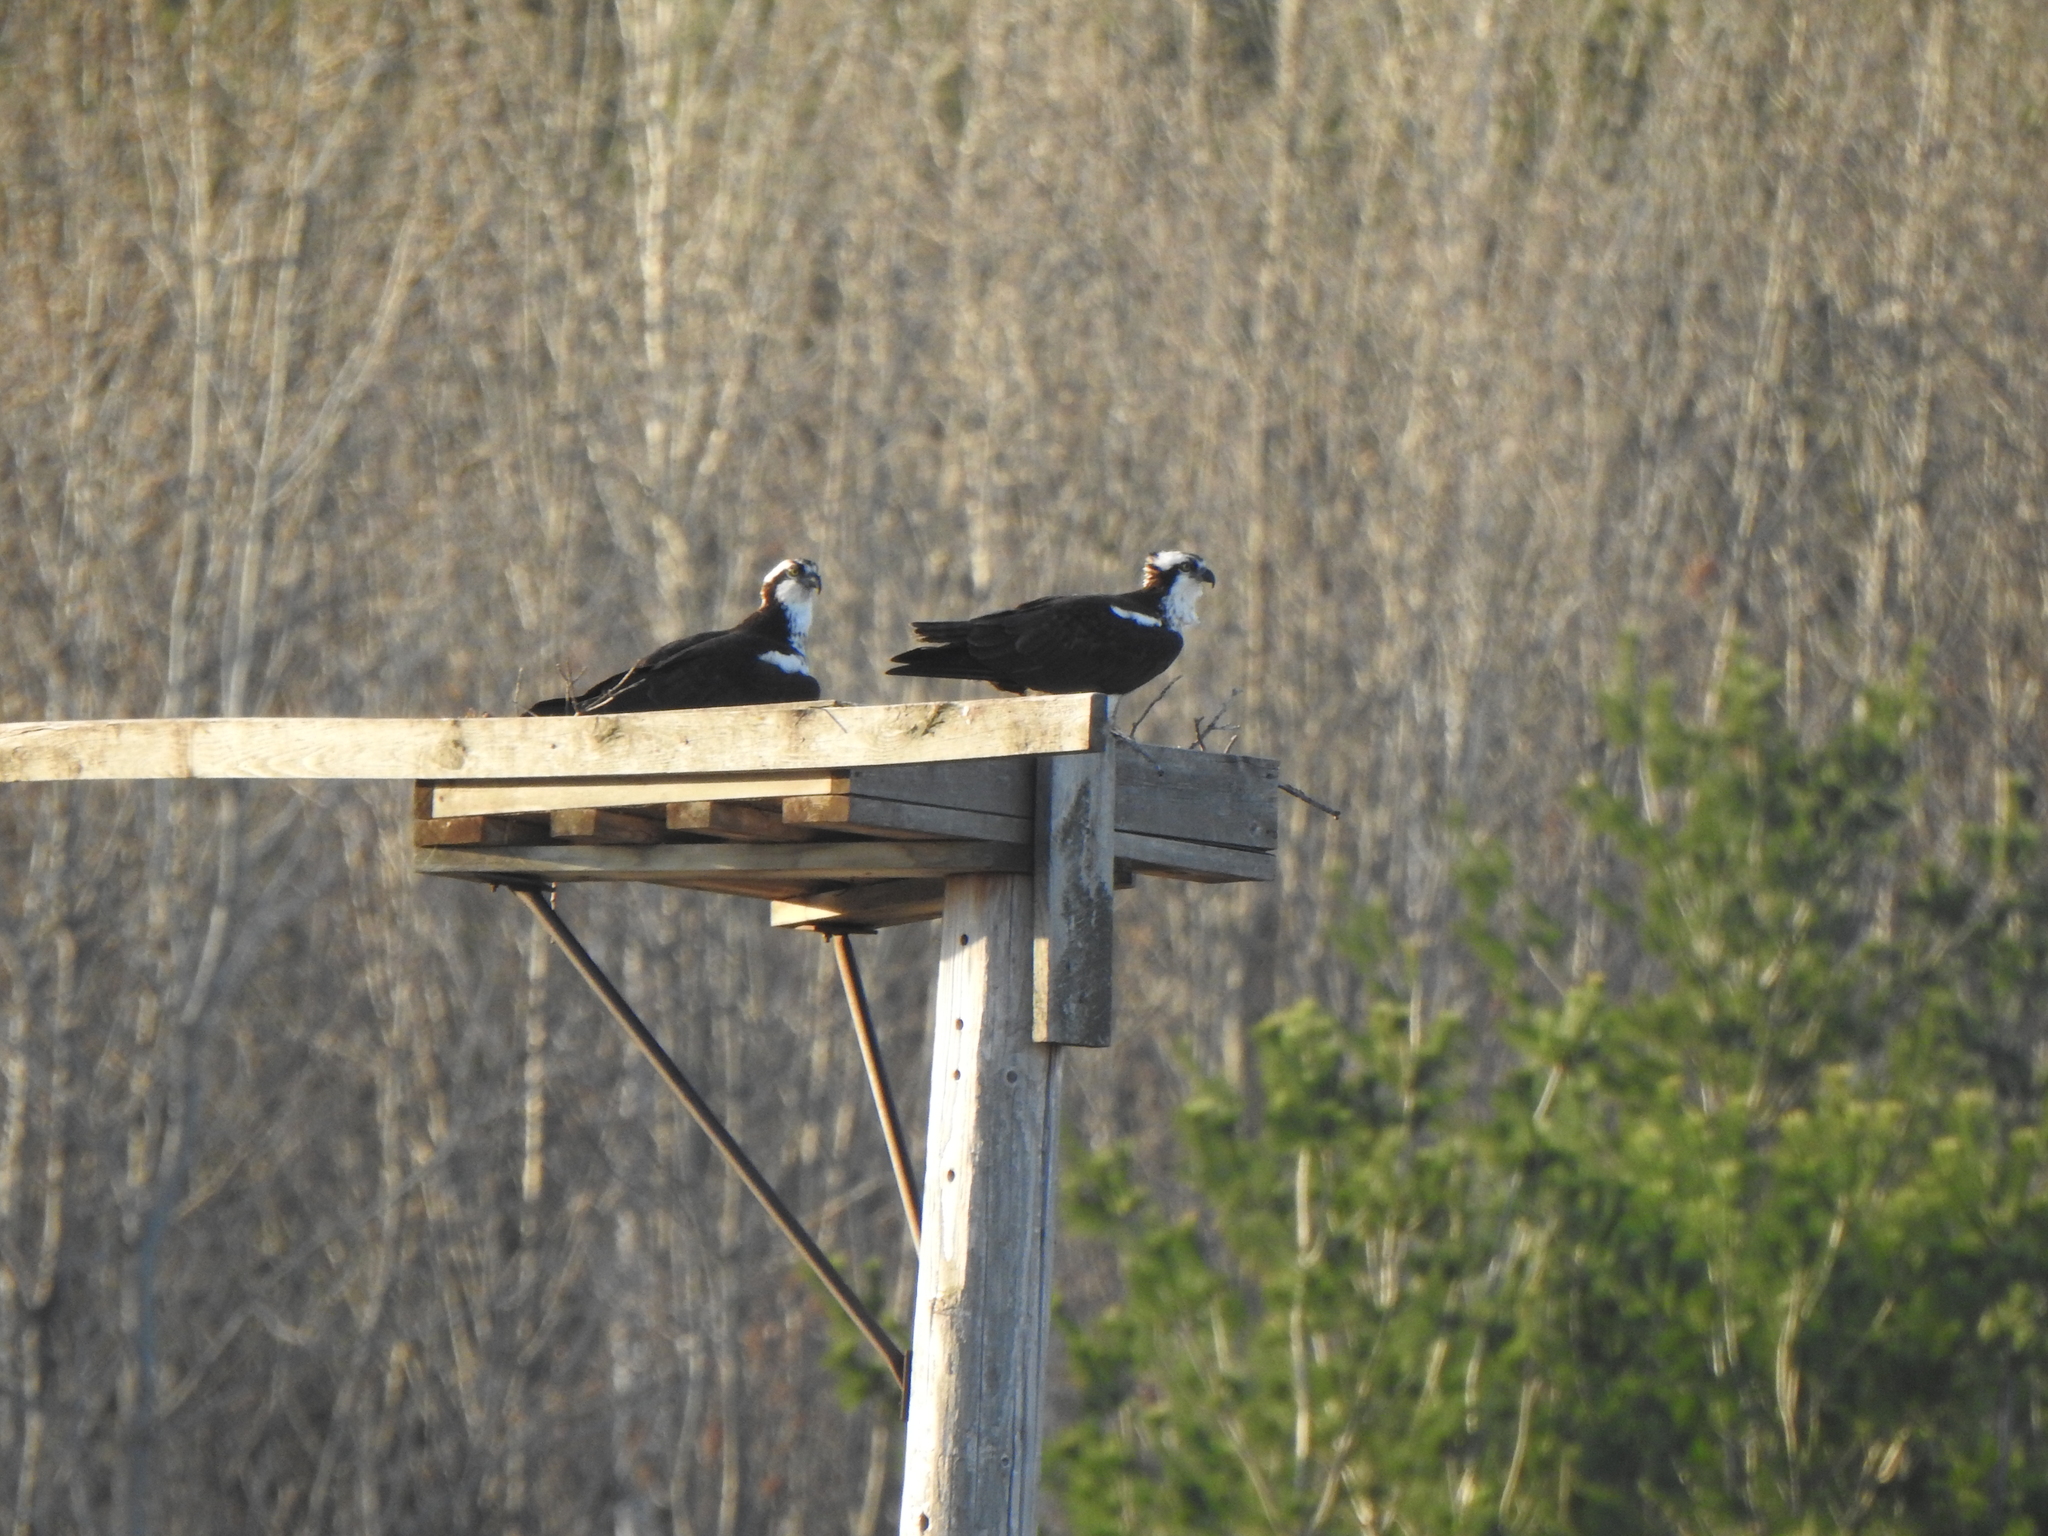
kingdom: Animalia
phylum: Chordata
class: Aves
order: Accipitriformes
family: Pandionidae
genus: Pandion
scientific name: Pandion haliaetus
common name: Osprey
